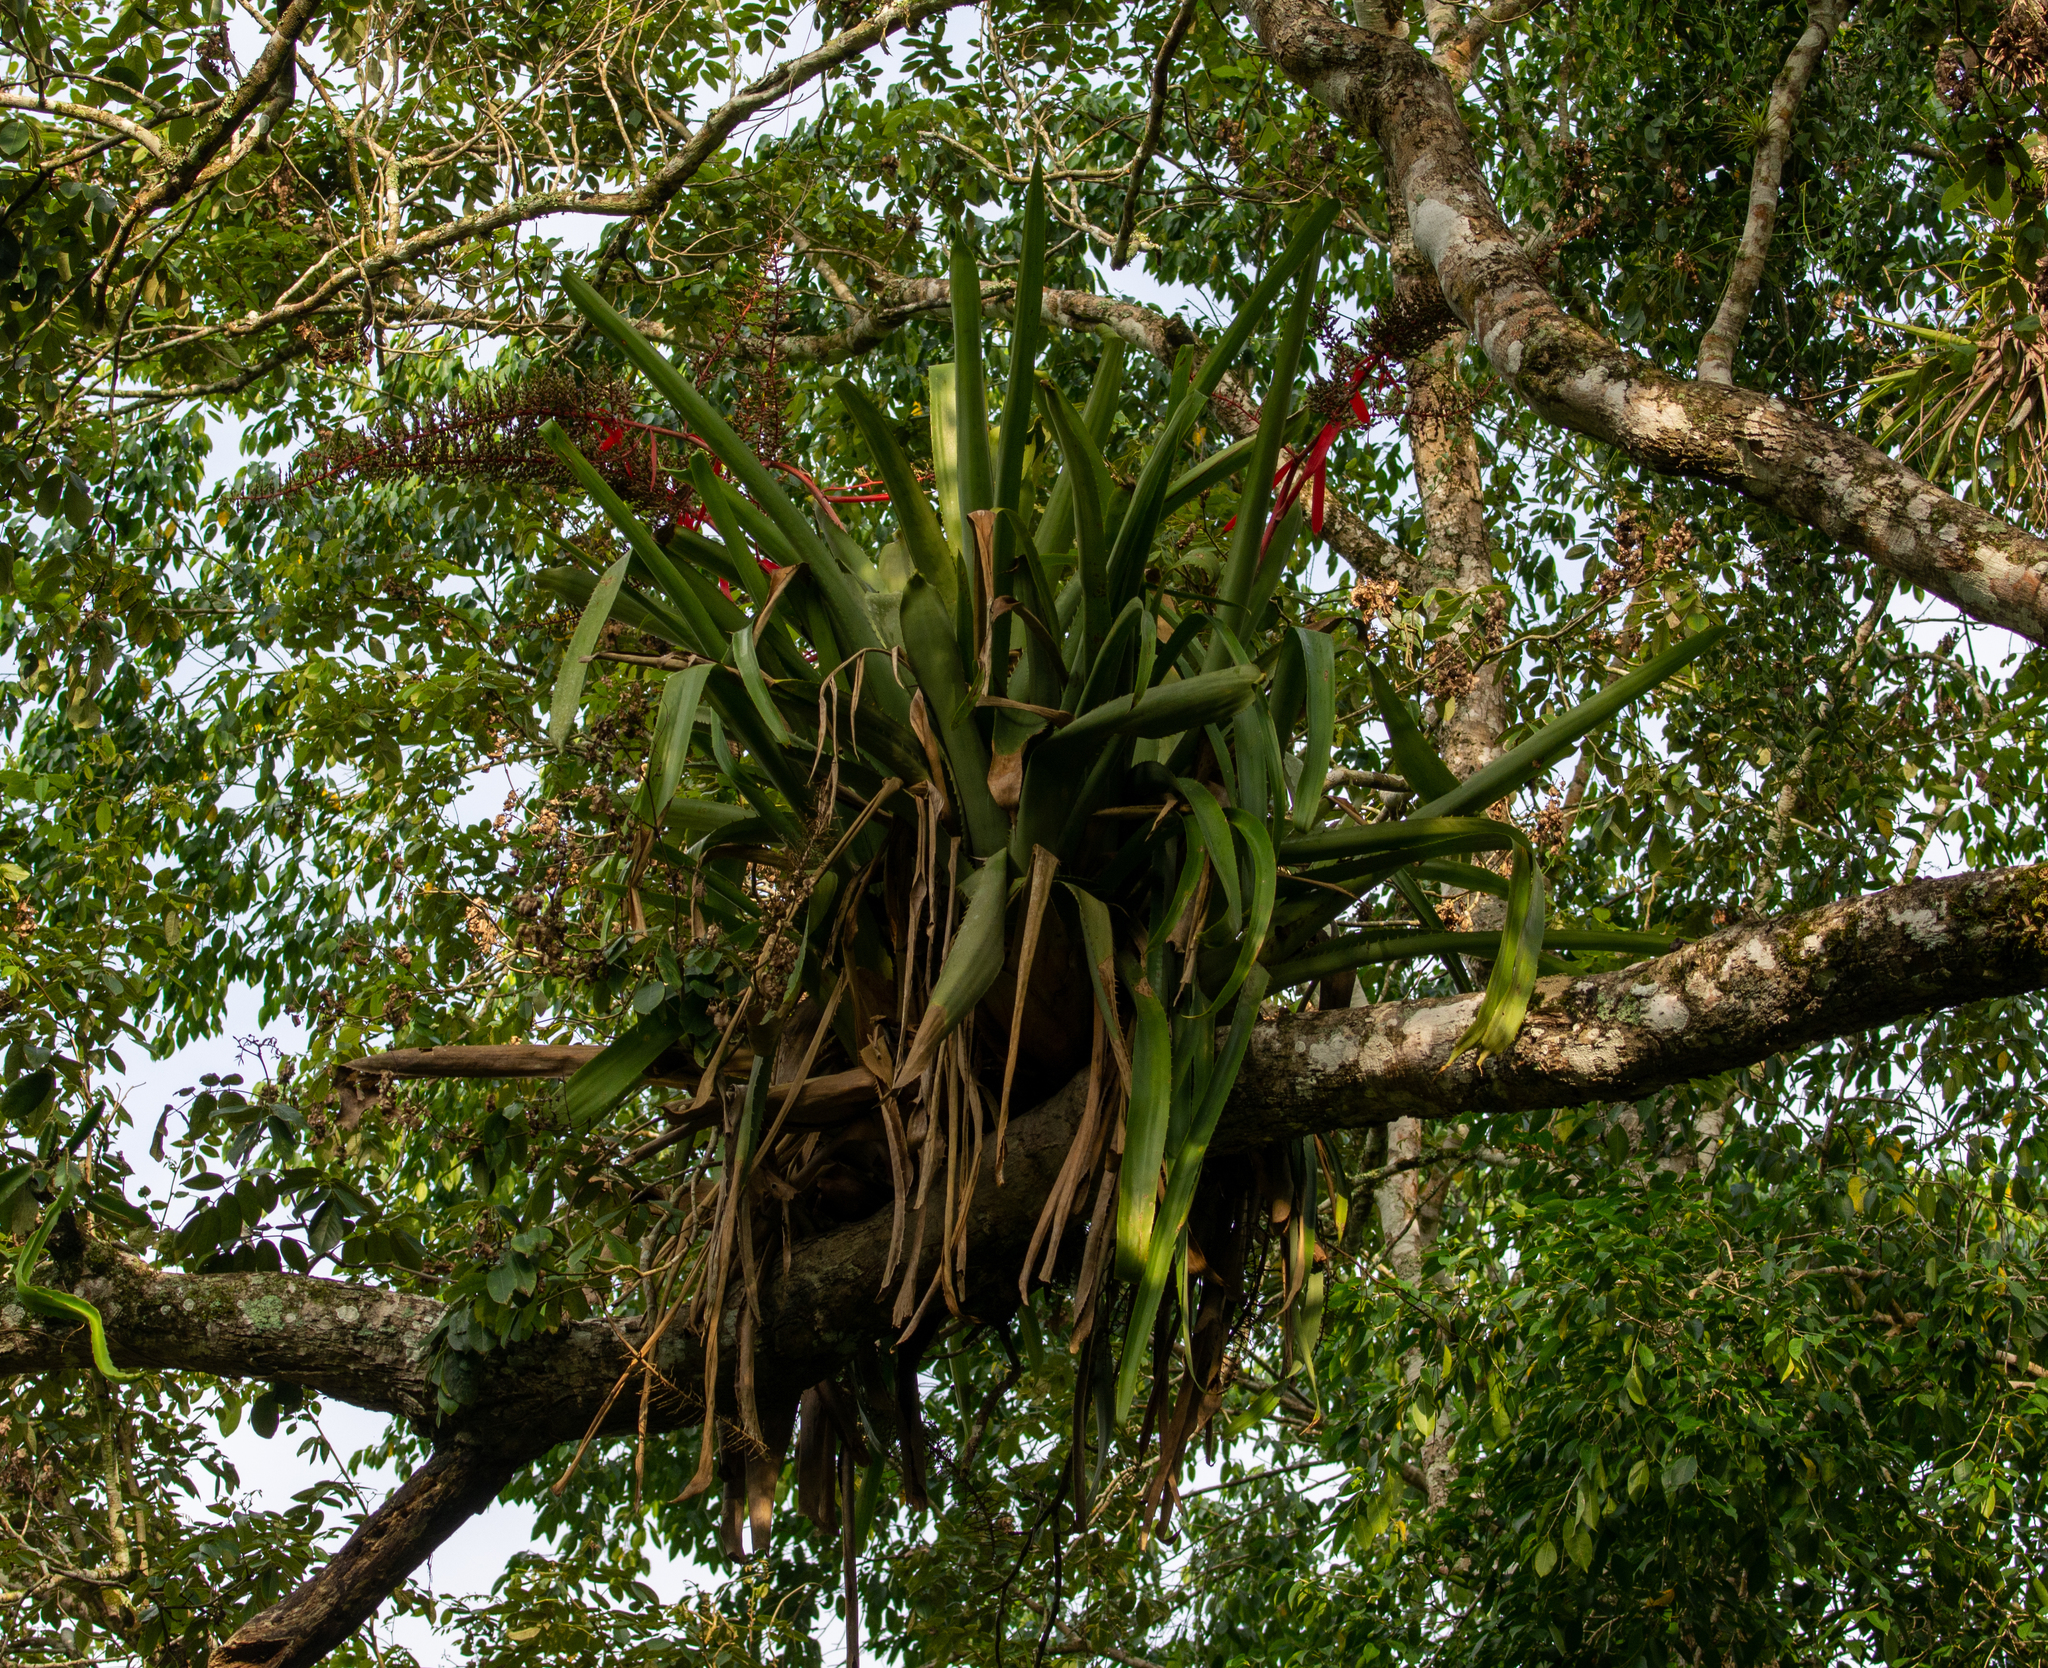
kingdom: Plantae
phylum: Tracheophyta
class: Liliopsida
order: Poales
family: Bromeliaceae
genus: Aechmea
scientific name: Aechmea bracteata
